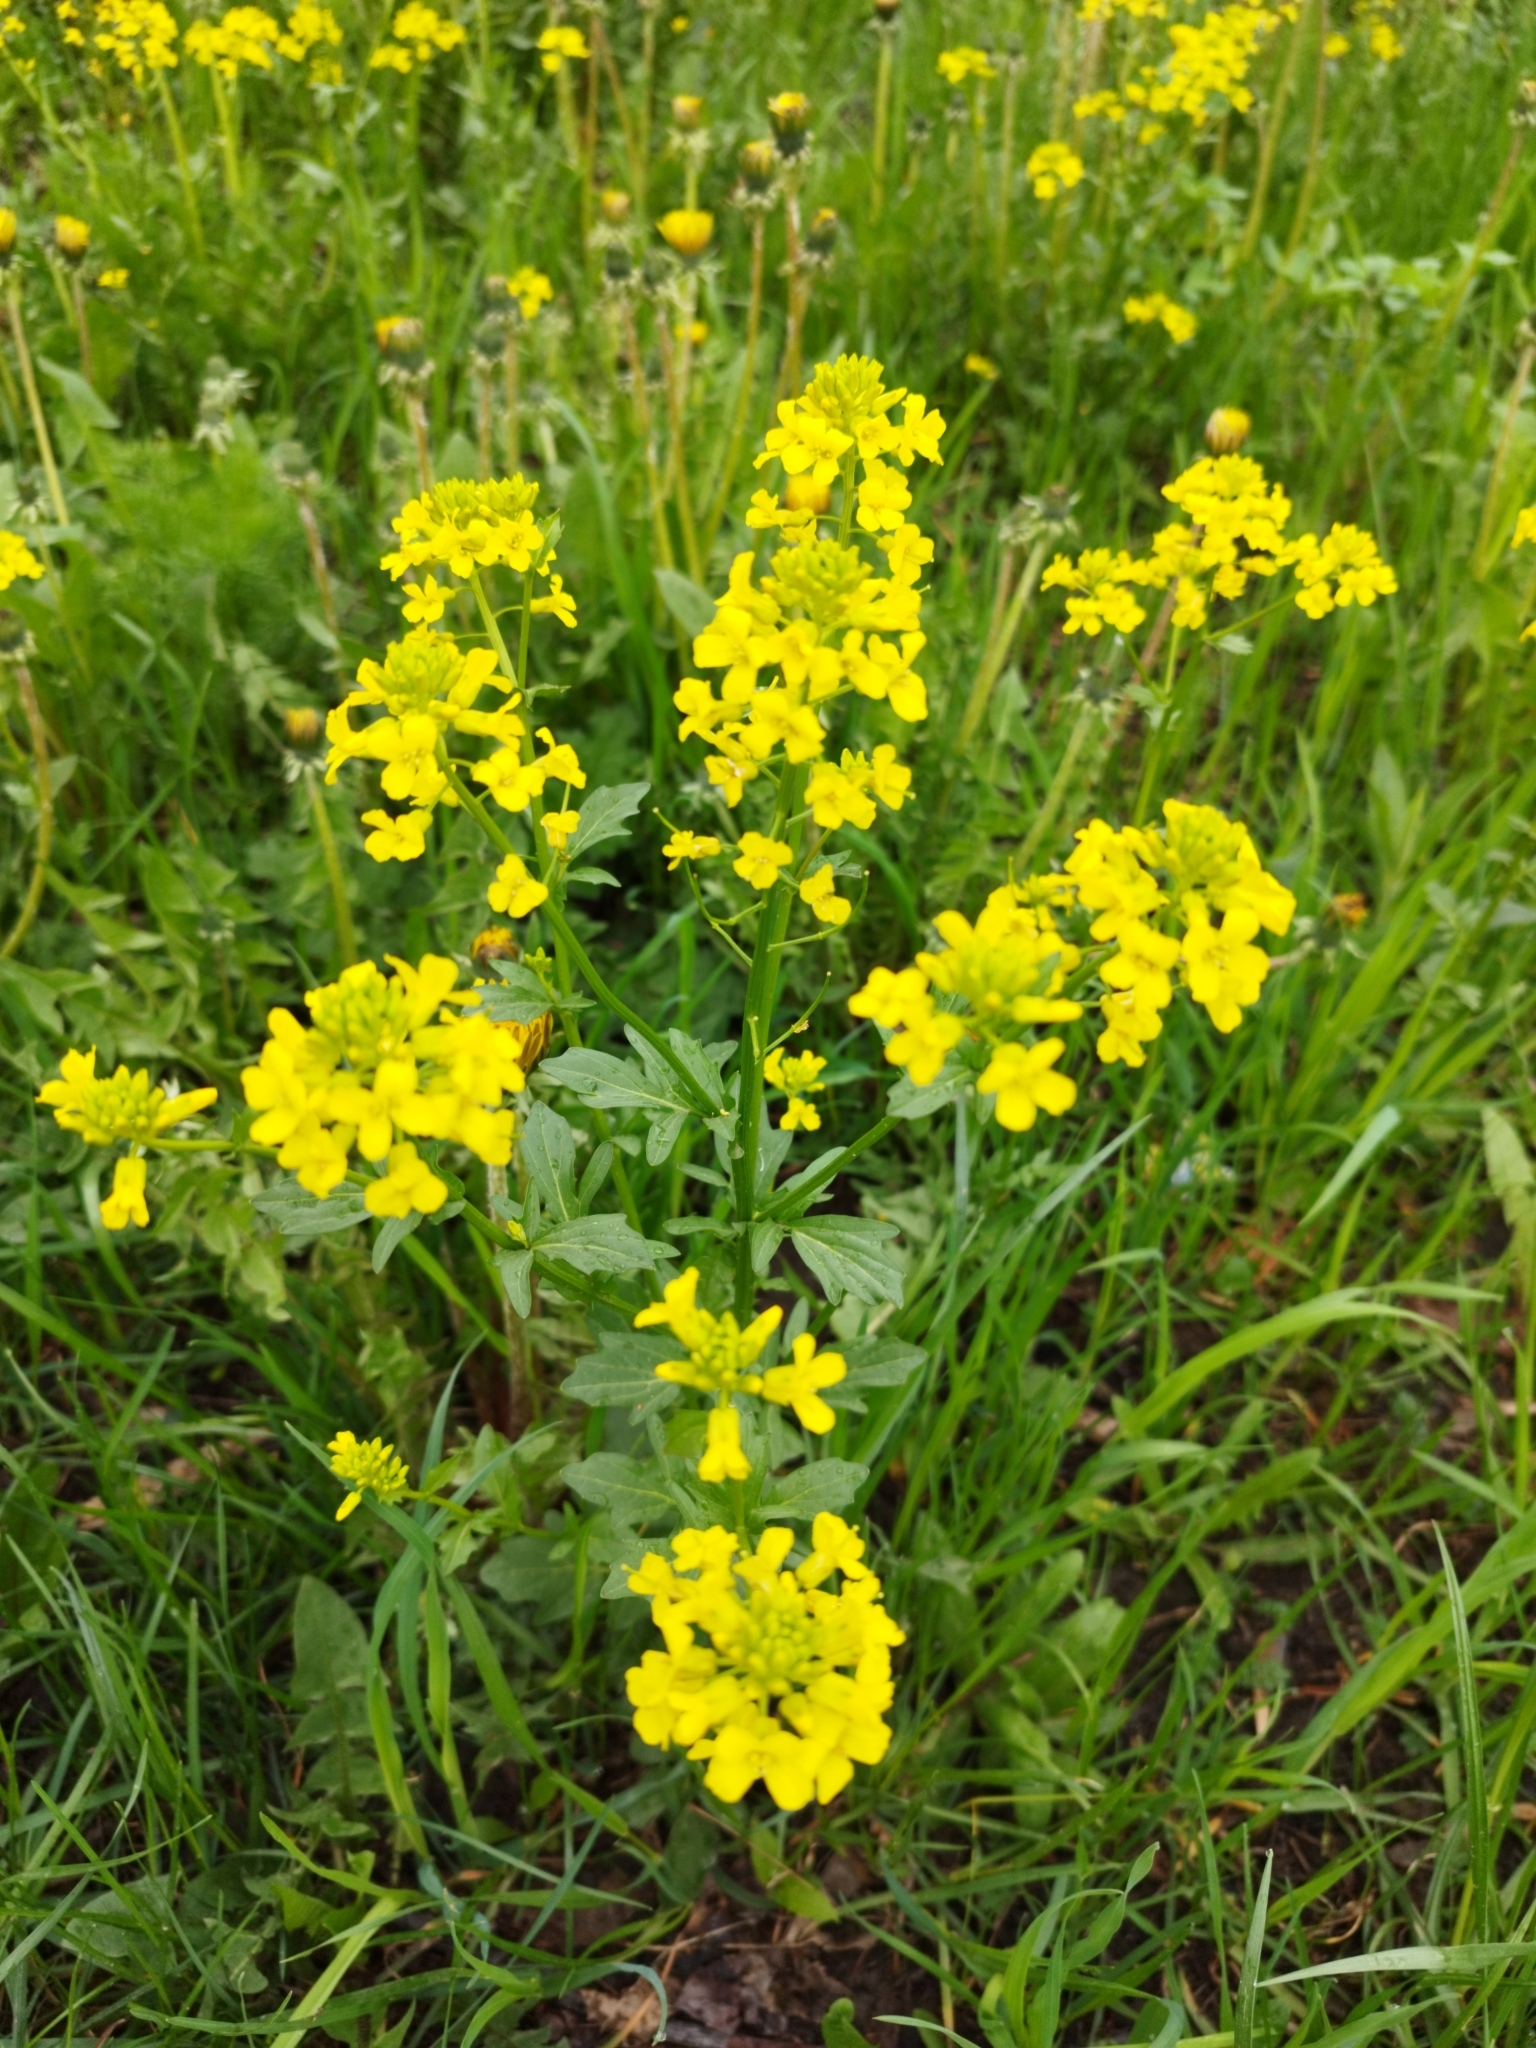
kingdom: Plantae
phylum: Tracheophyta
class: Magnoliopsida
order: Brassicales
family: Brassicaceae
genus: Barbarea
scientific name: Barbarea vulgaris
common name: Cressy-greens
